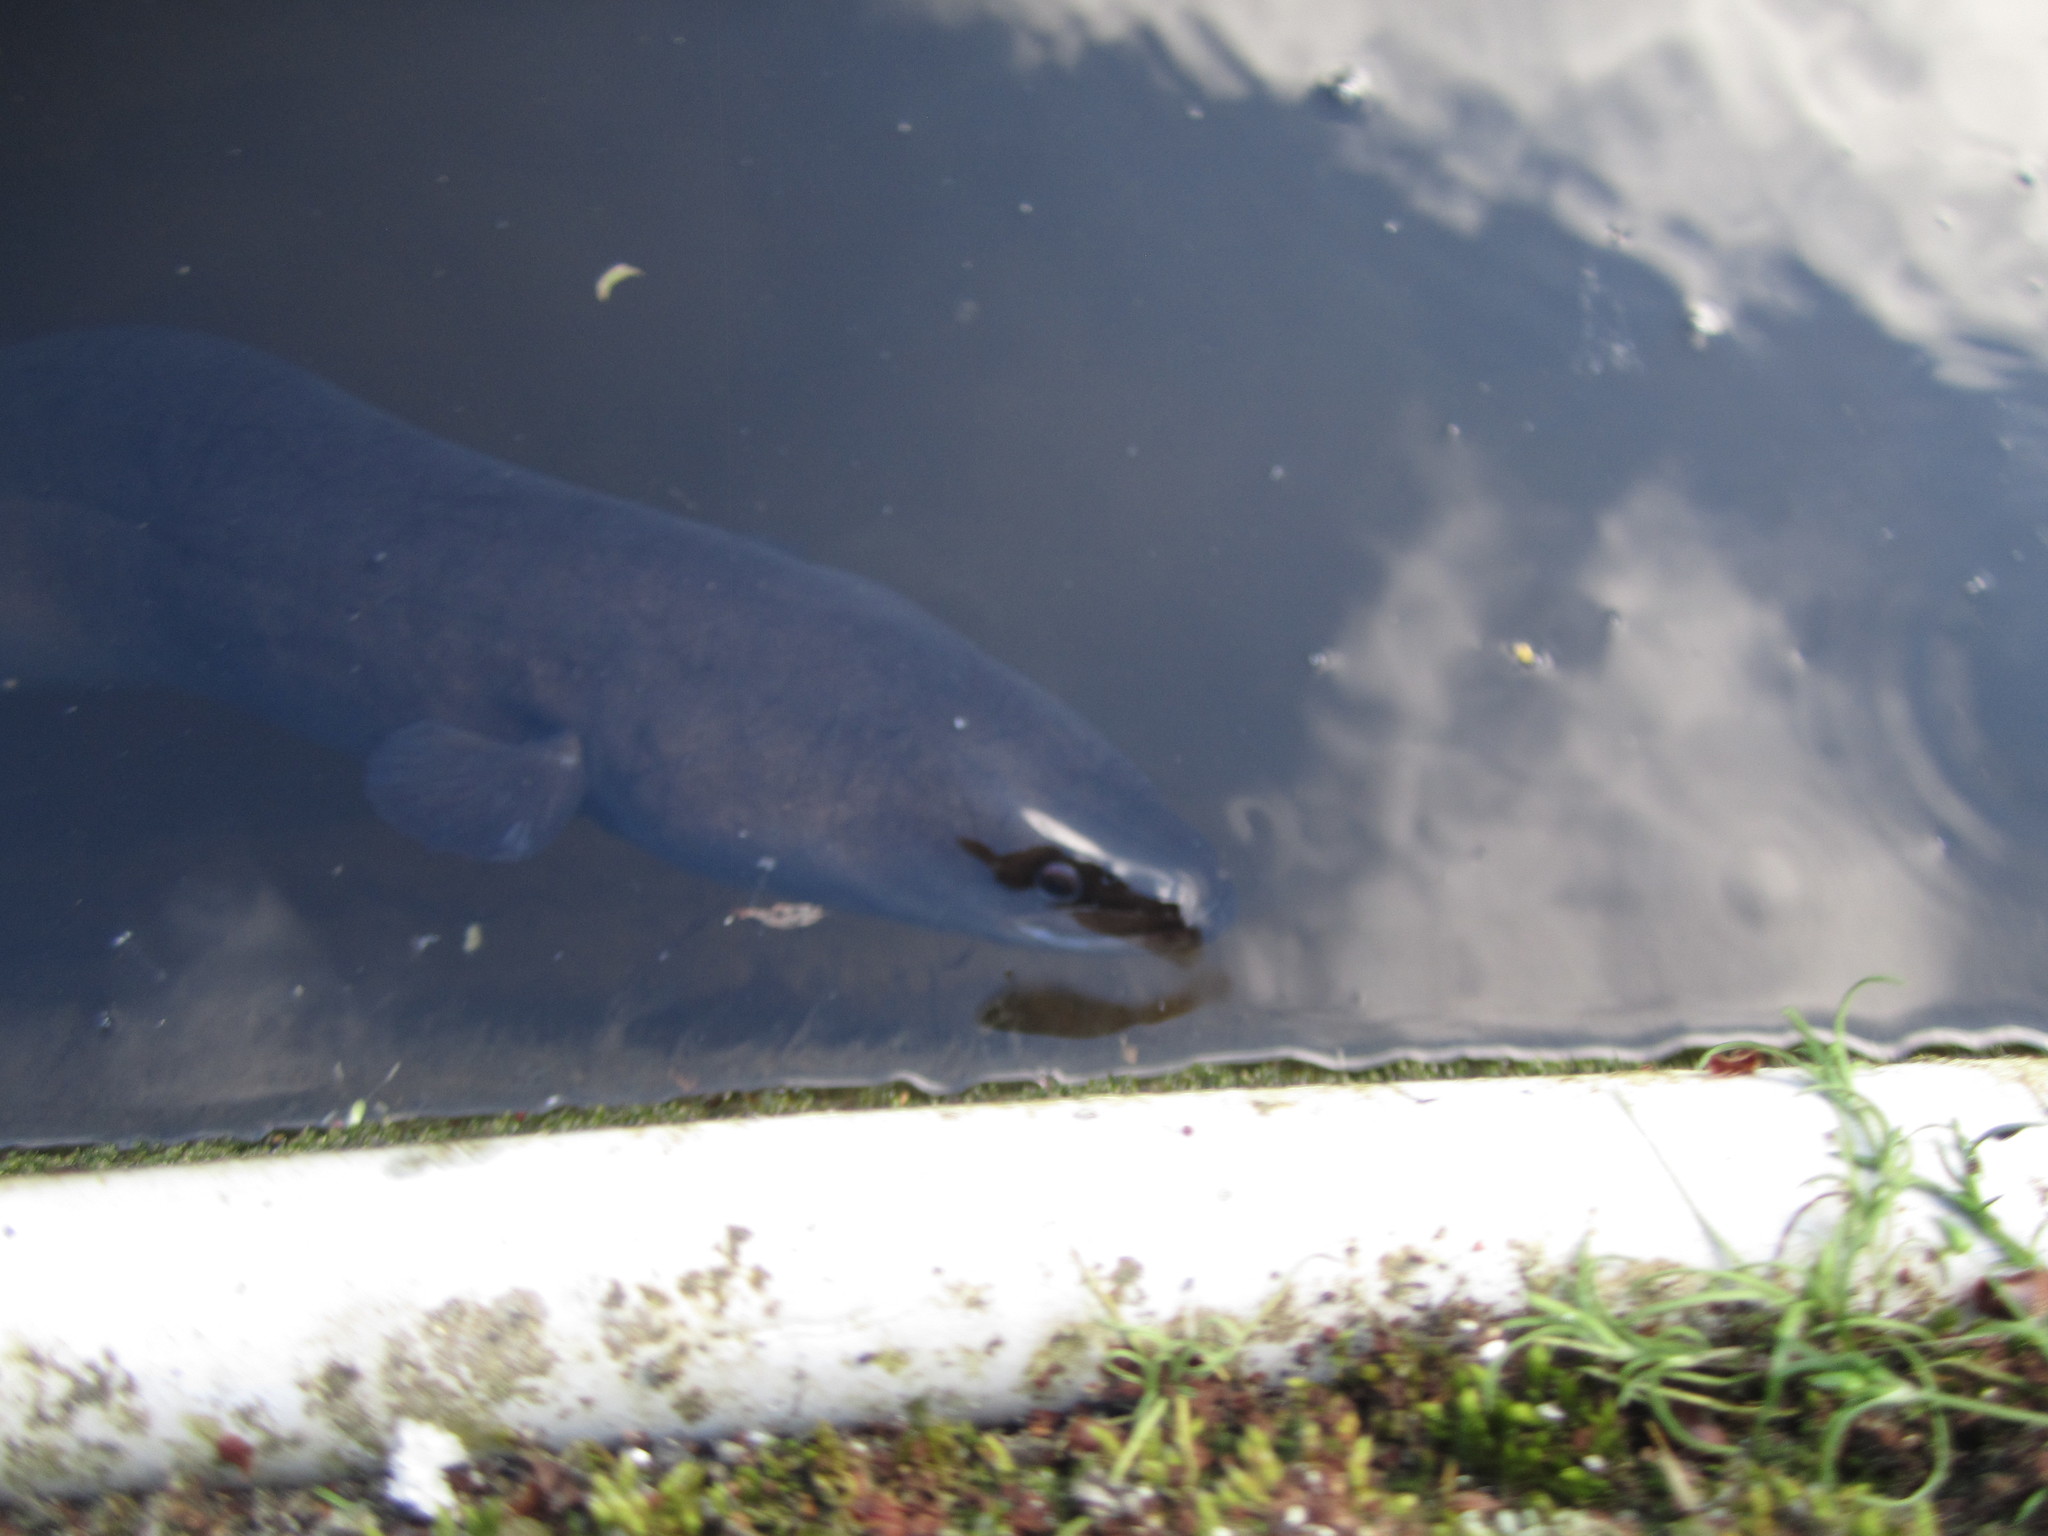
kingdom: Animalia
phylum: Chordata
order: Anguilliformes
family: Anguillidae
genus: Anguilla
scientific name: Anguilla dieffenbachii
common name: New zealand longfin eel
